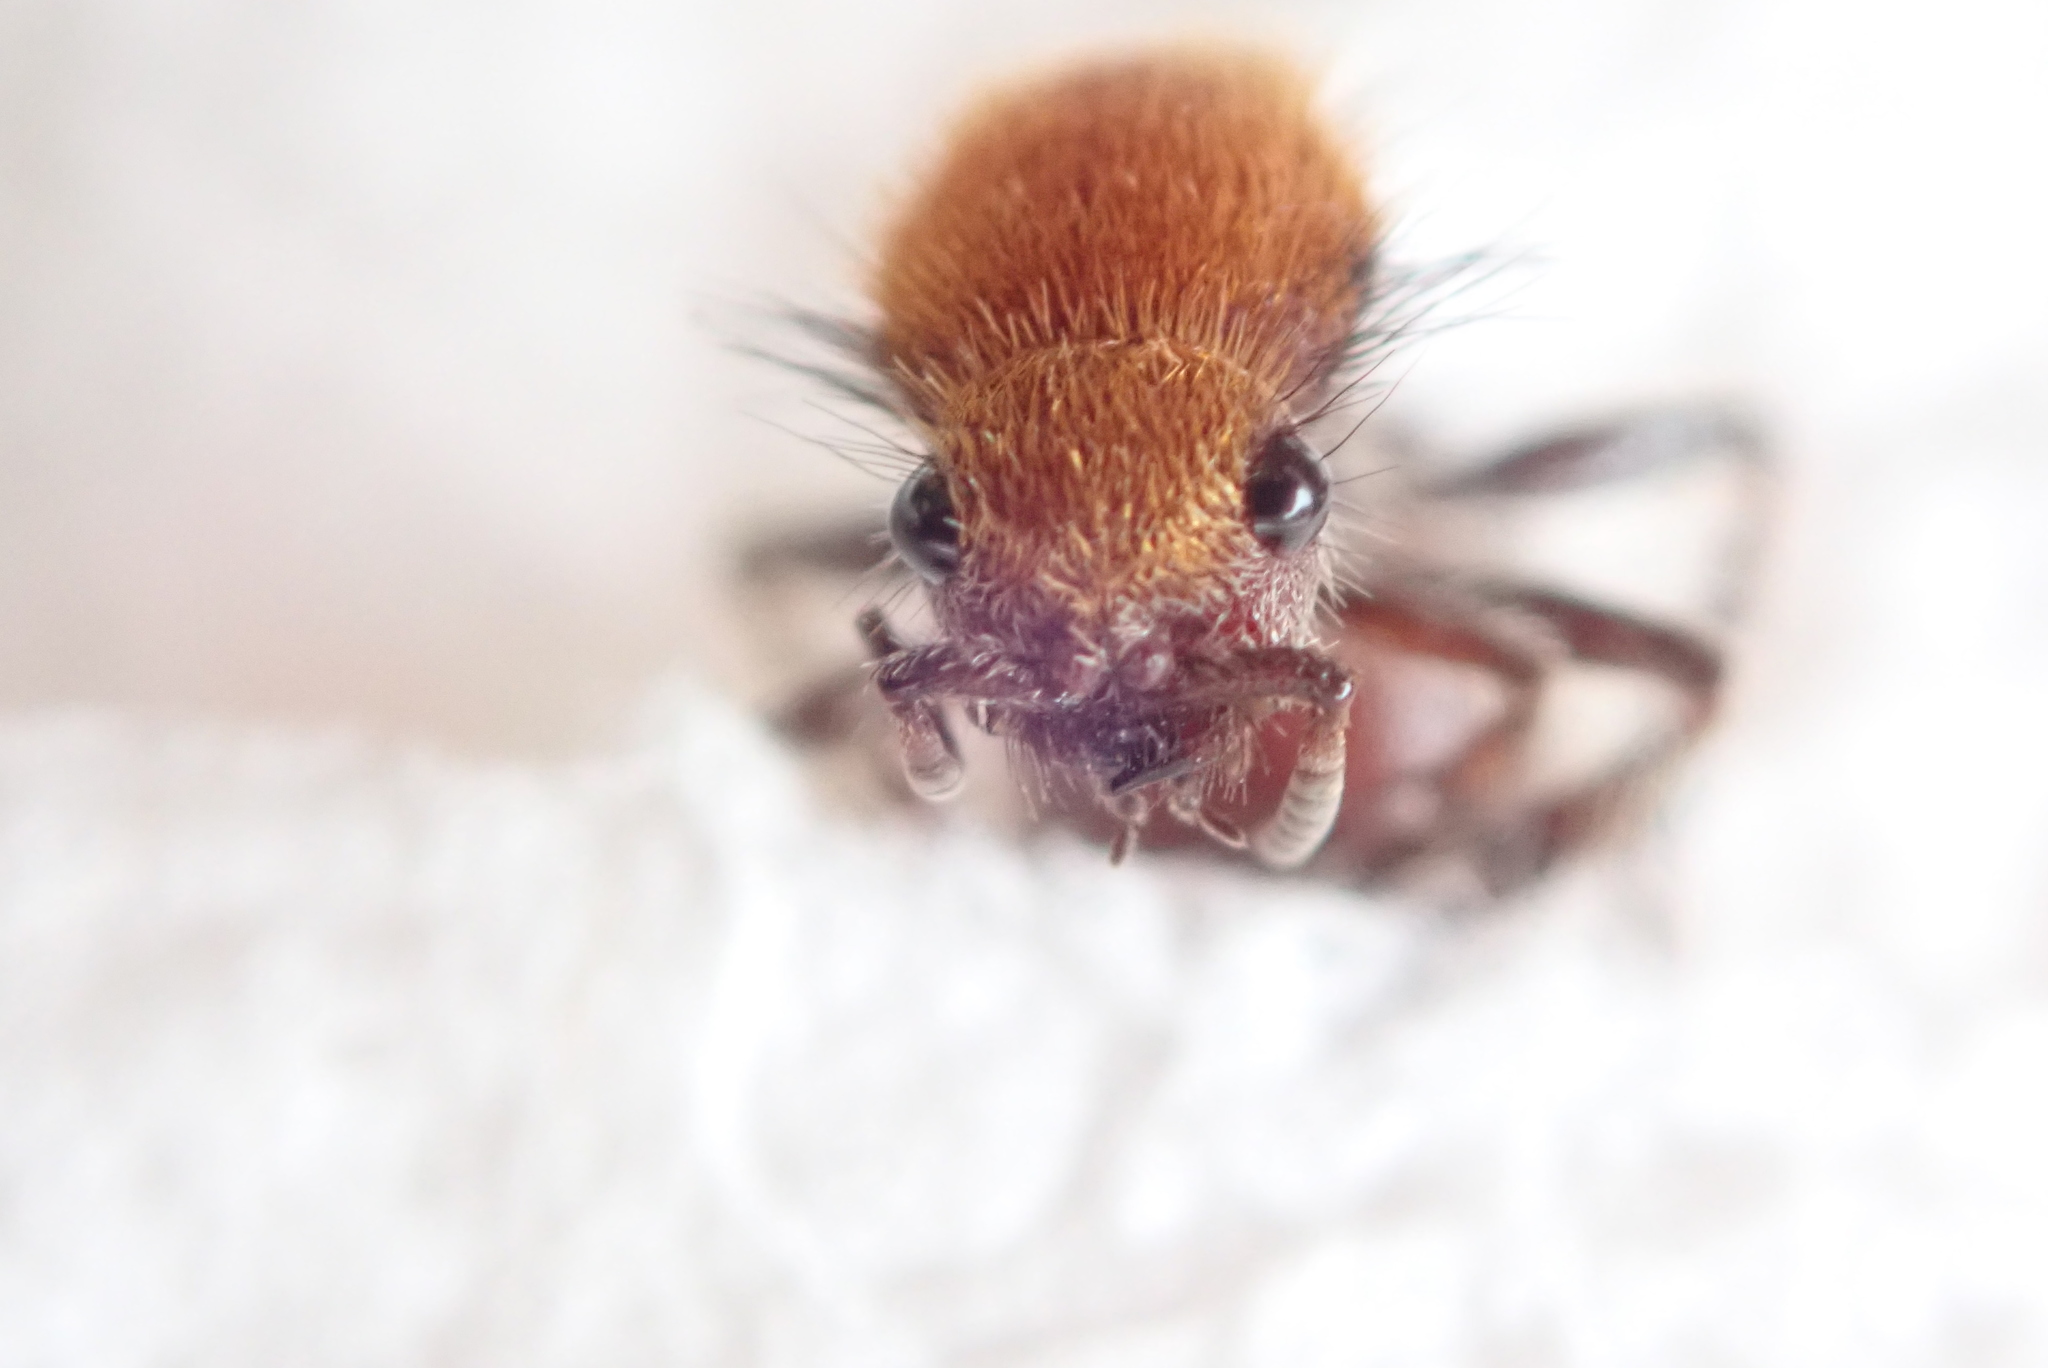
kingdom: Animalia
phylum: Arthropoda
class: Insecta
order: Hymenoptera
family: Mutillidae
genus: Dasymutilla
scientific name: Dasymutilla
